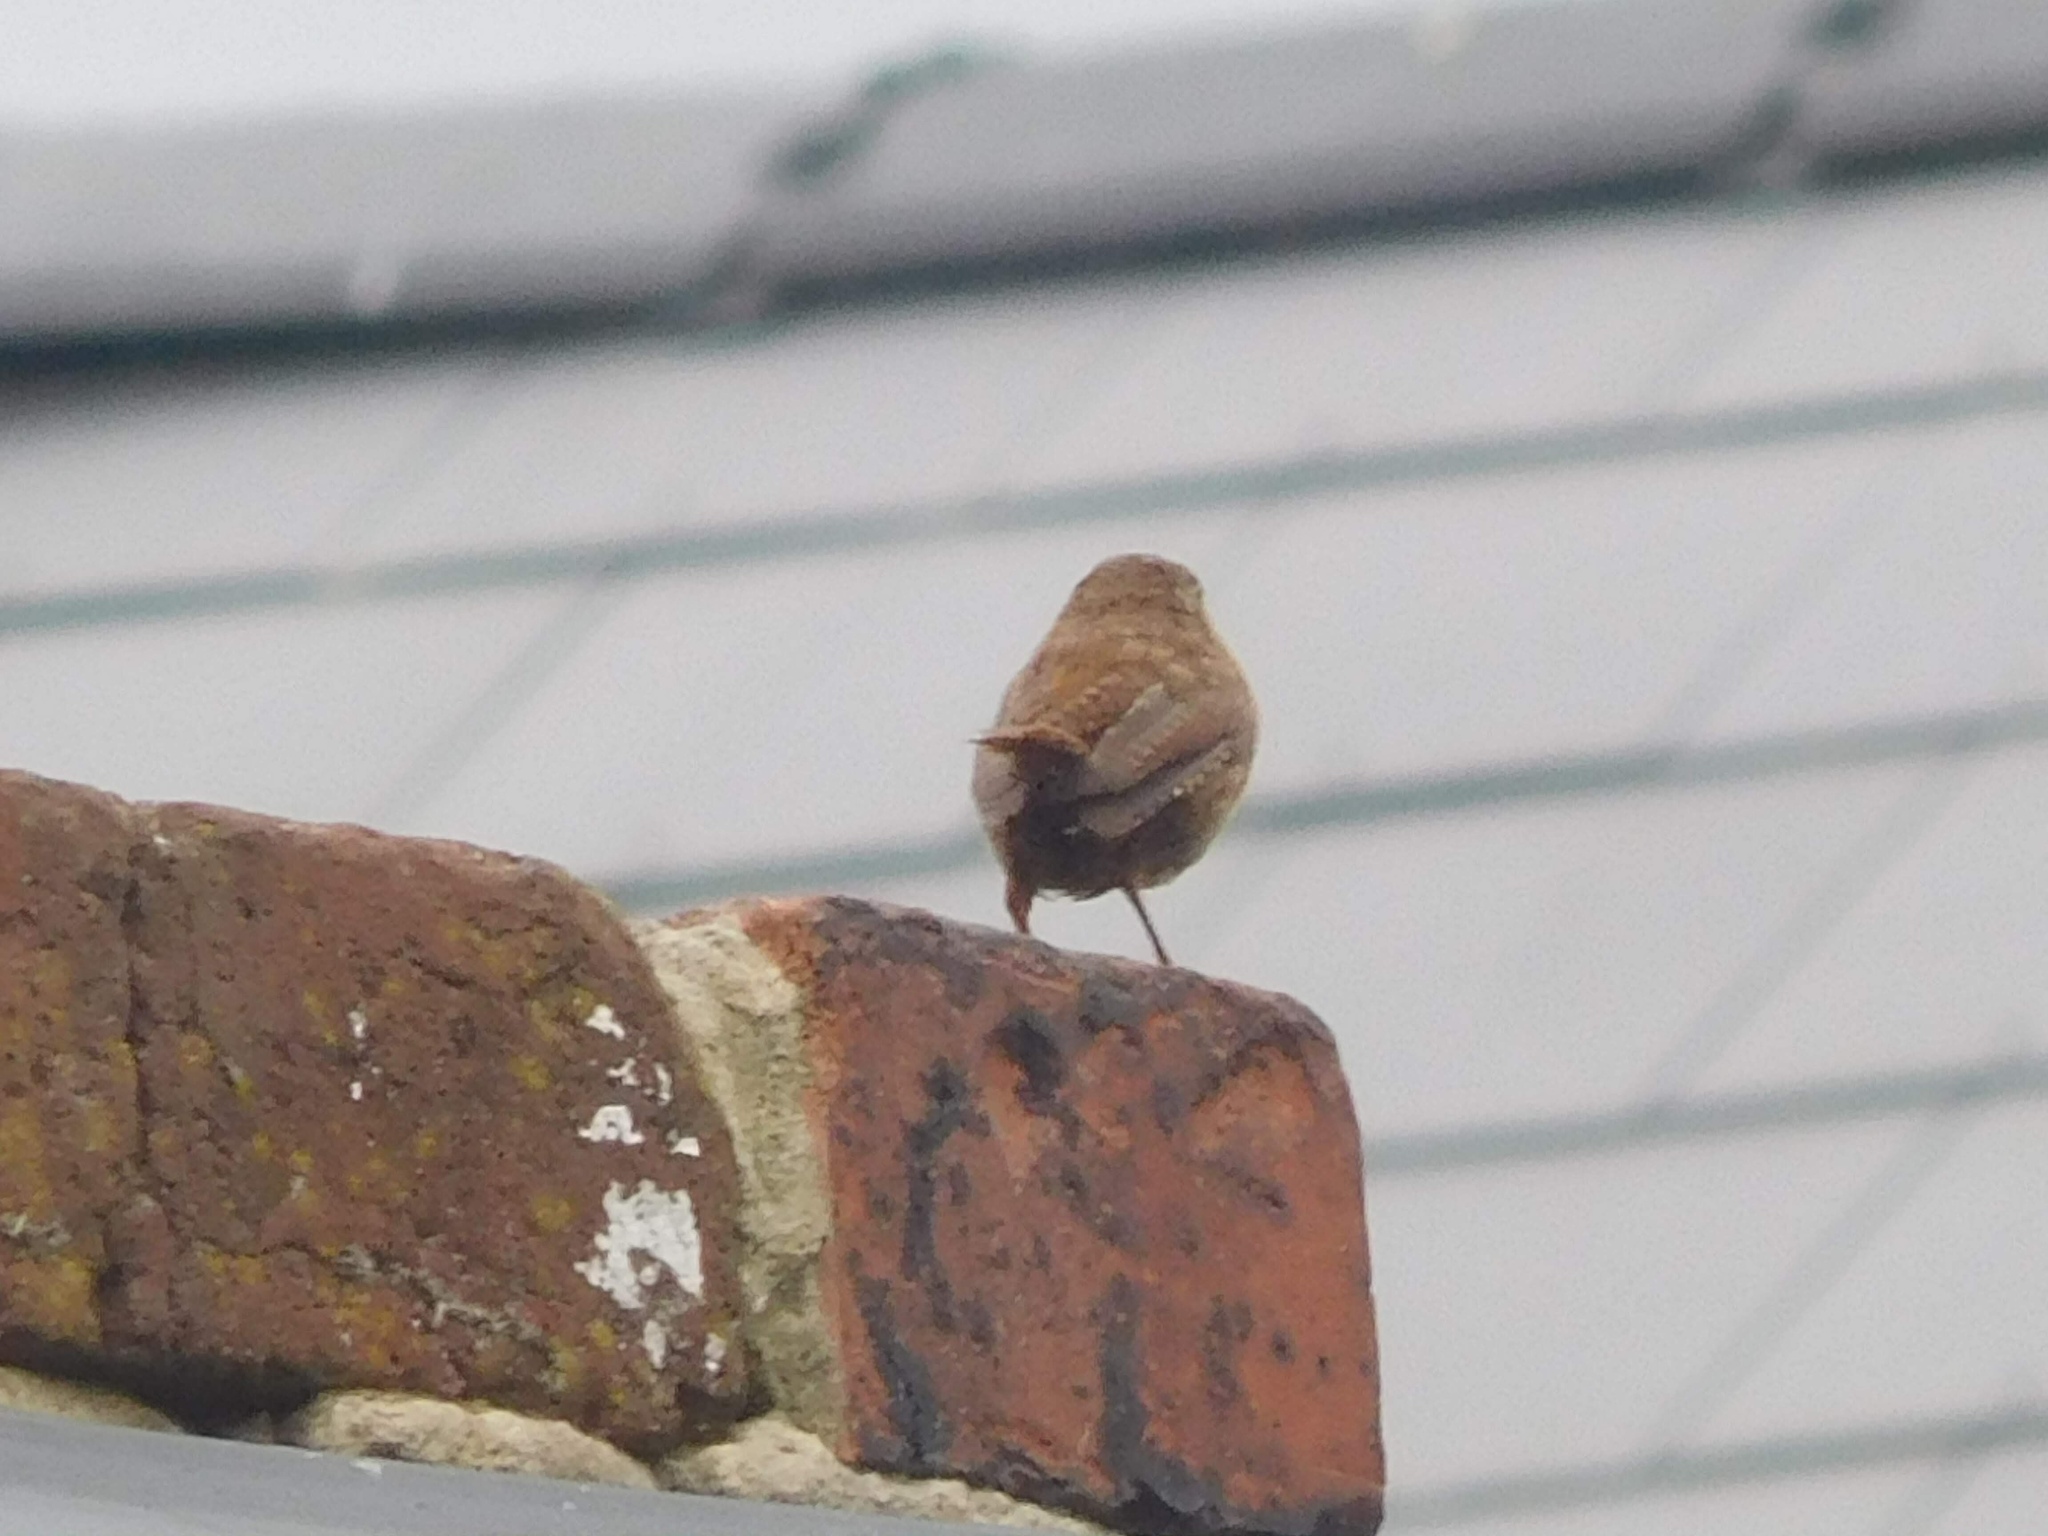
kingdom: Animalia
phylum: Chordata
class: Aves
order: Passeriformes
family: Troglodytidae
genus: Troglodytes
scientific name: Troglodytes troglodytes
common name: Eurasian wren
